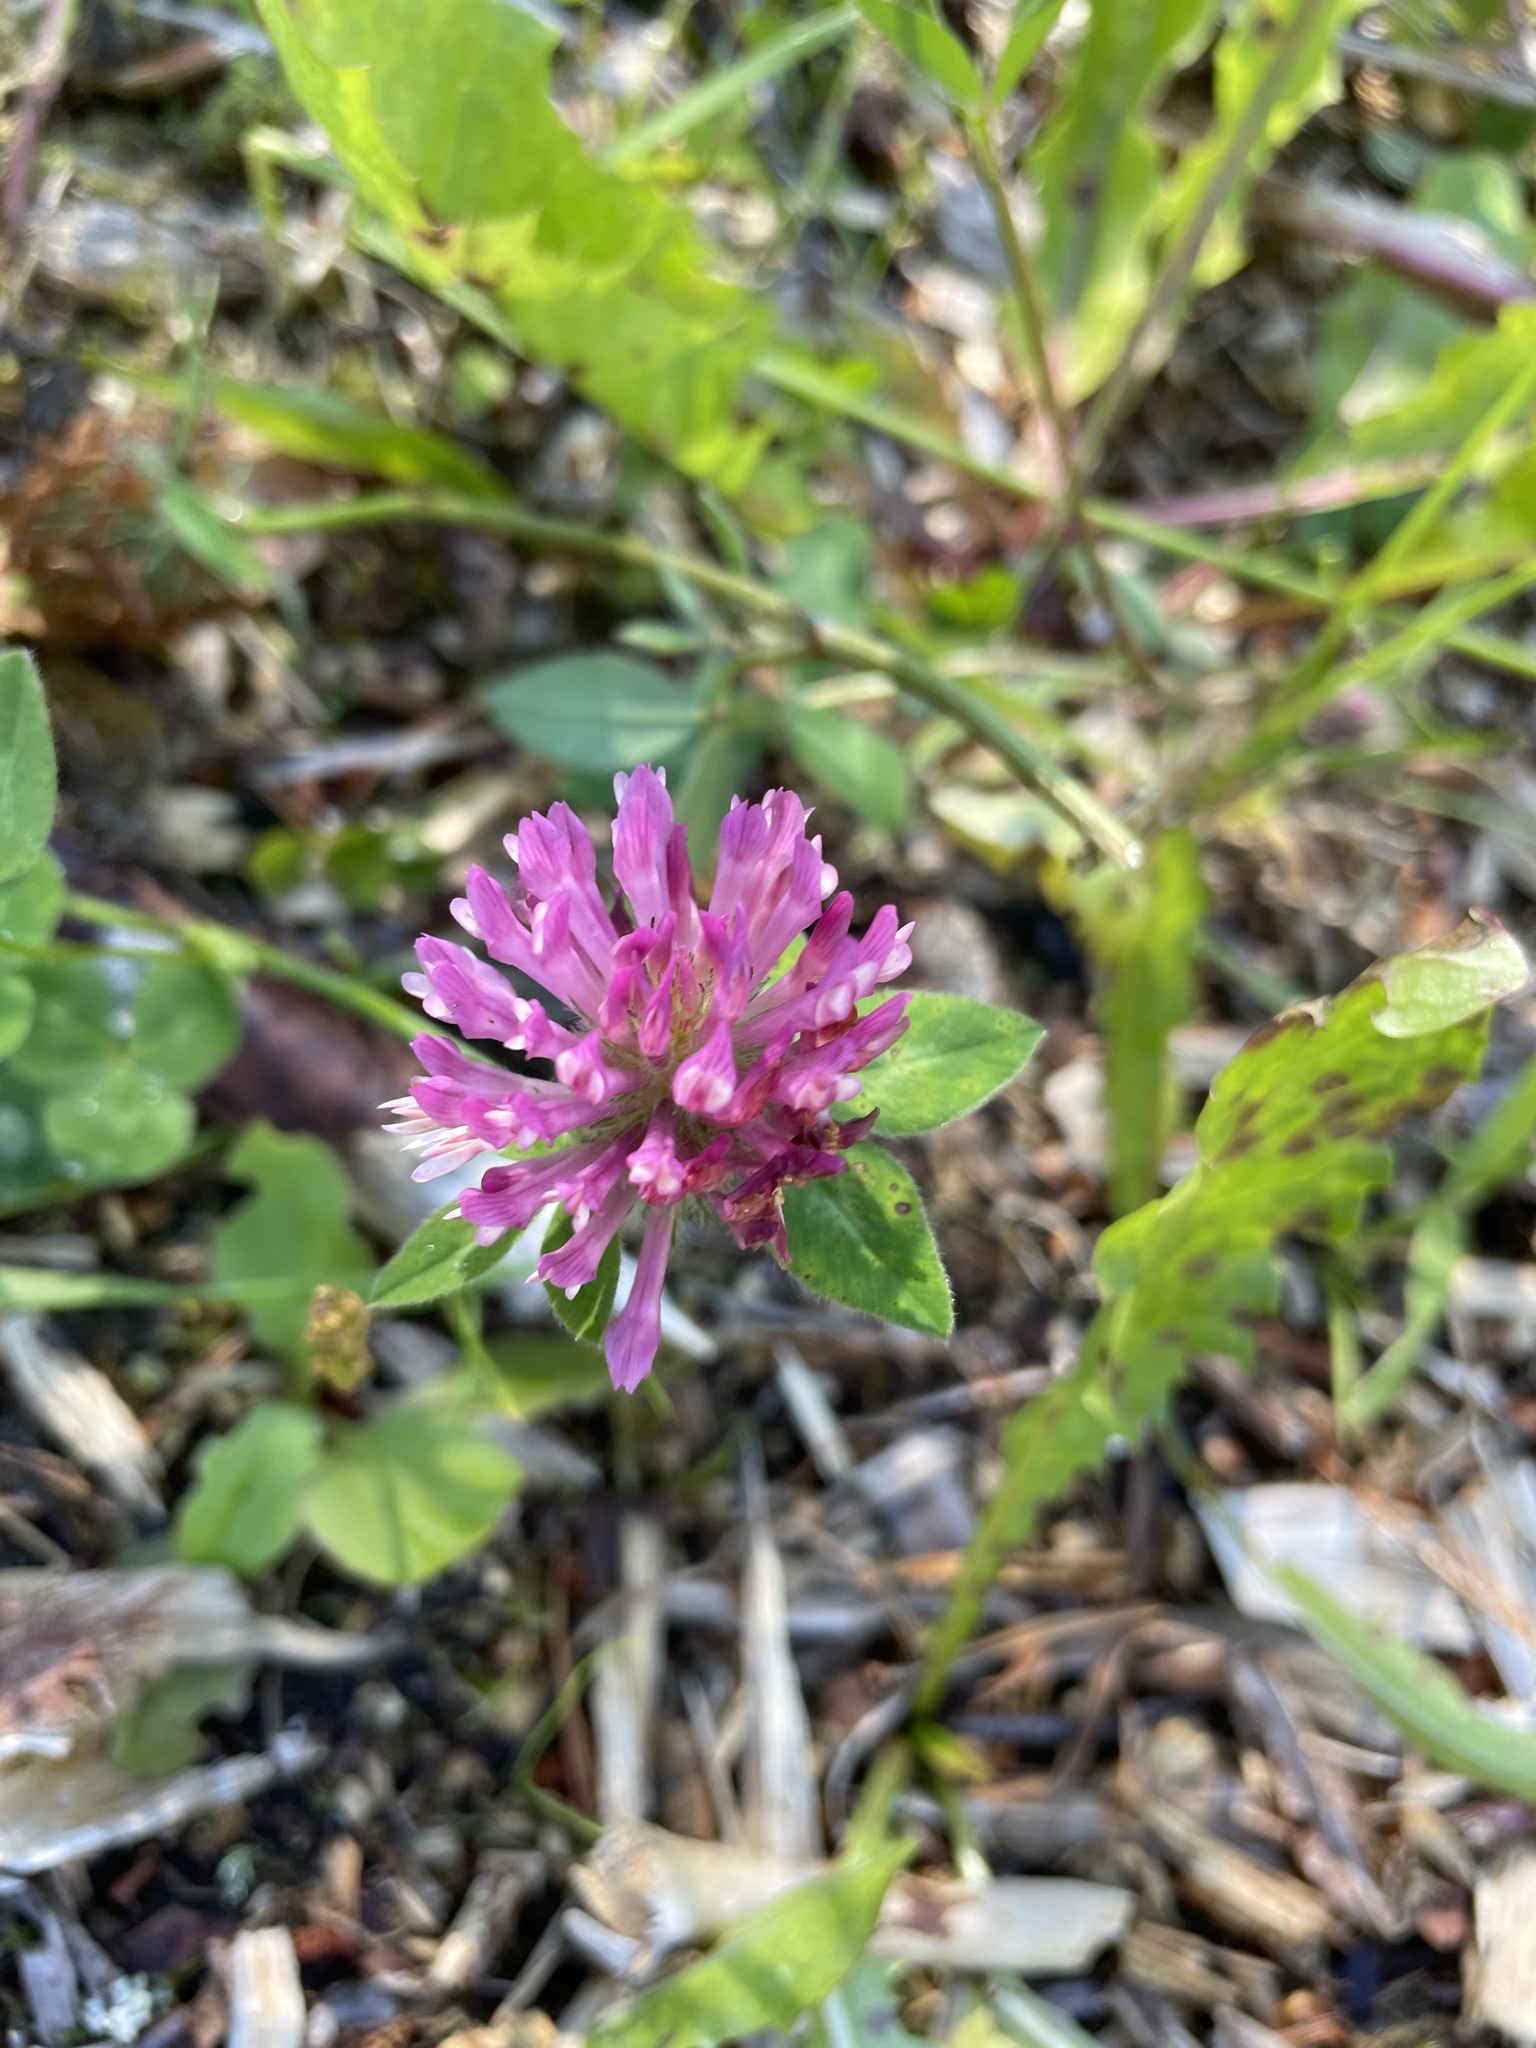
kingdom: Plantae
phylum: Tracheophyta
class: Magnoliopsida
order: Fabales
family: Fabaceae
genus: Trifolium
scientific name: Trifolium pratense
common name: Red clover
